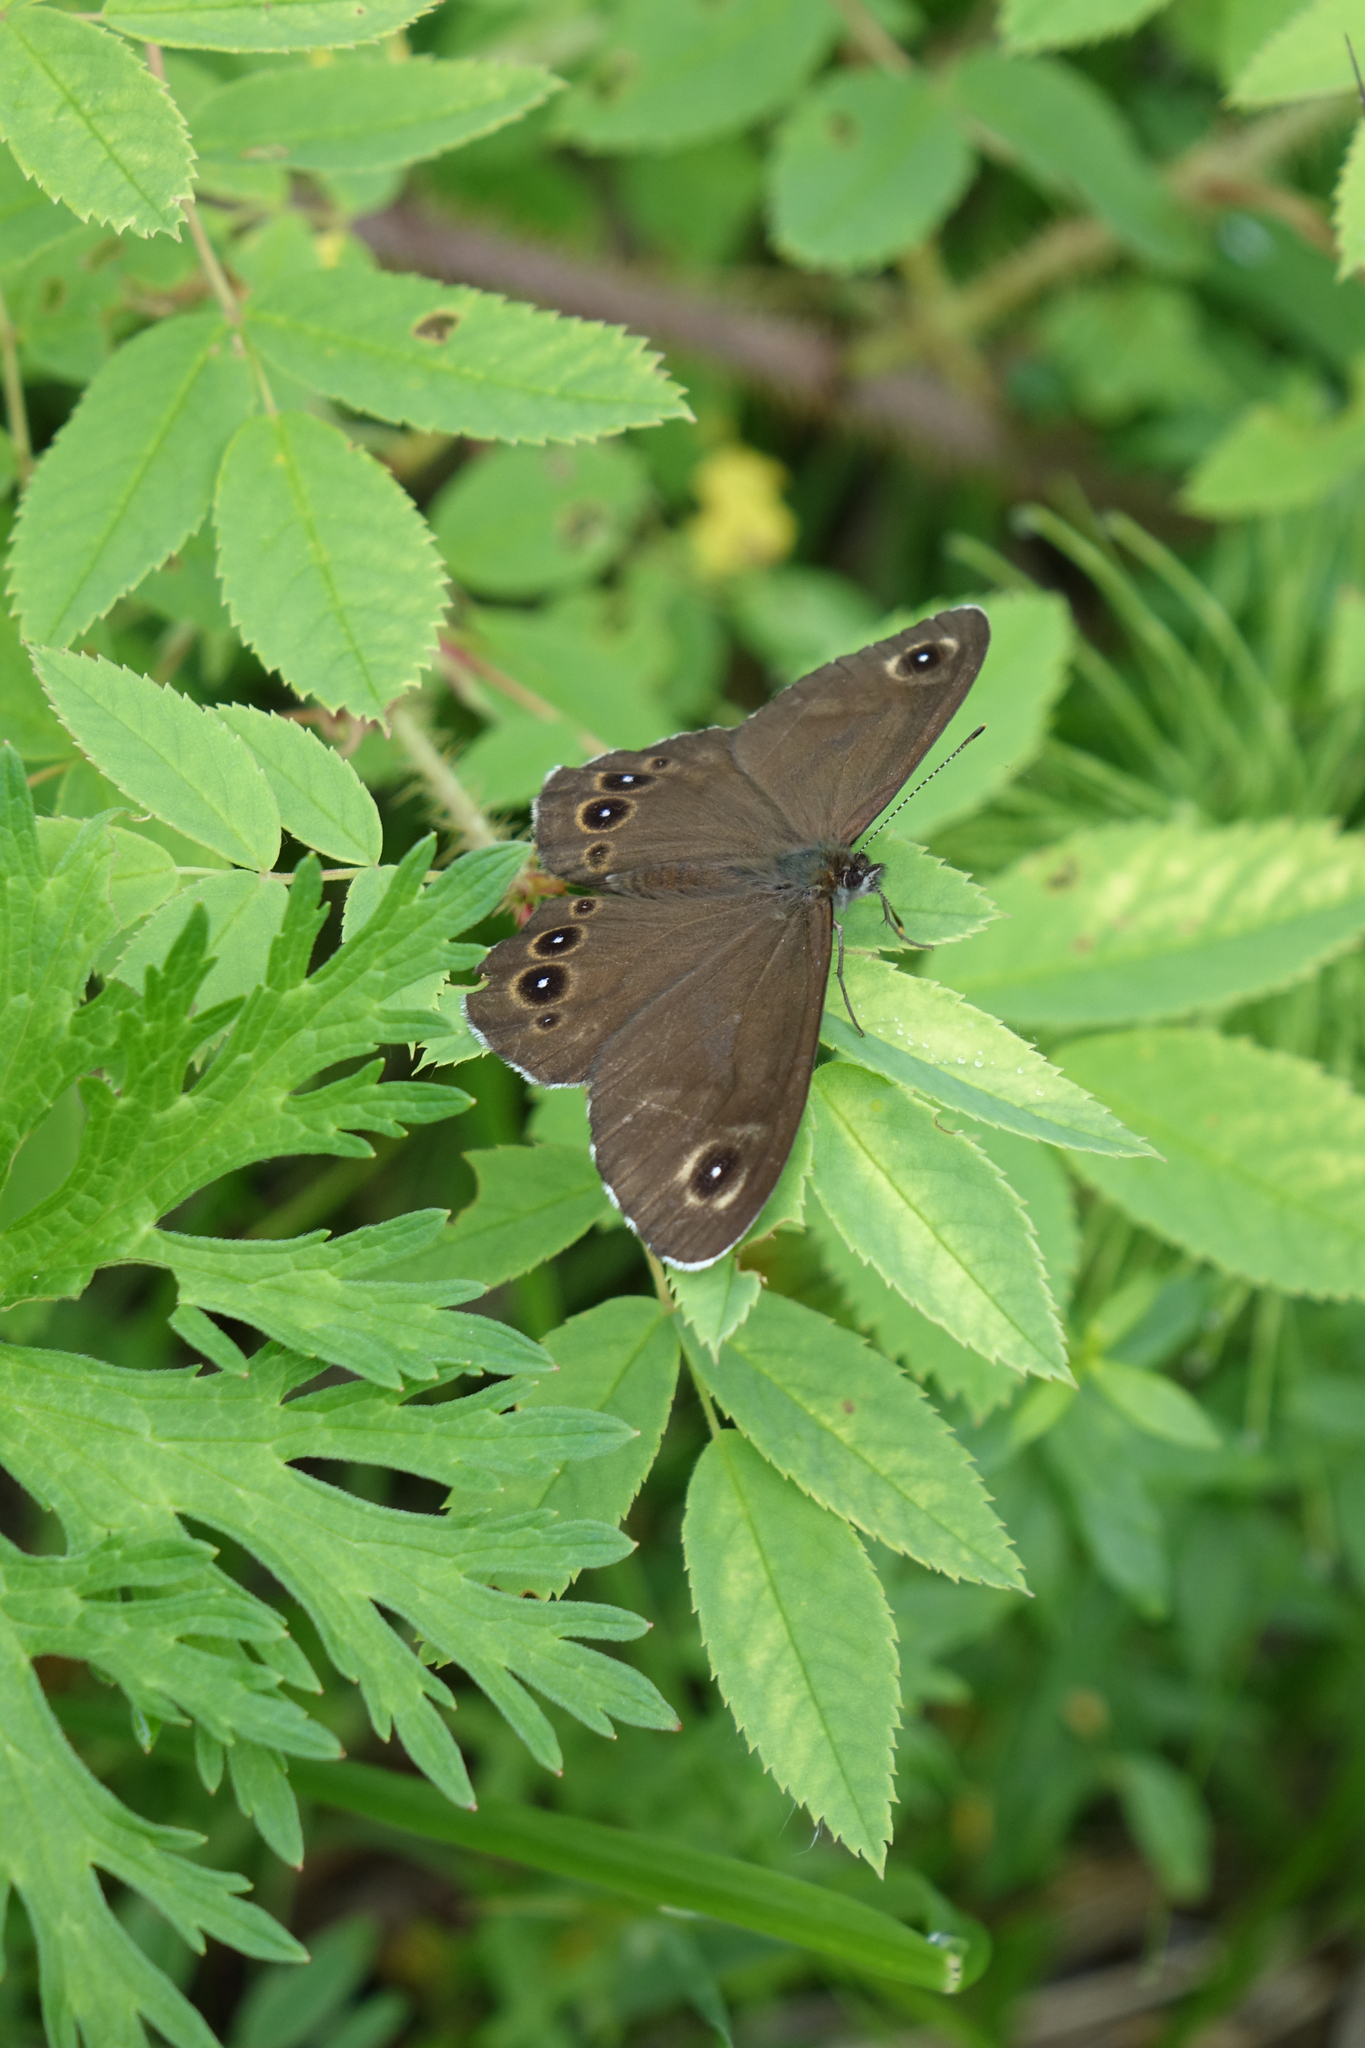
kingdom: Animalia
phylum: Arthropoda
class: Insecta
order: Lepidoptera
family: Nymphalidae
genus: Pararge
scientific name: Pararge Lasiommata deidamia
